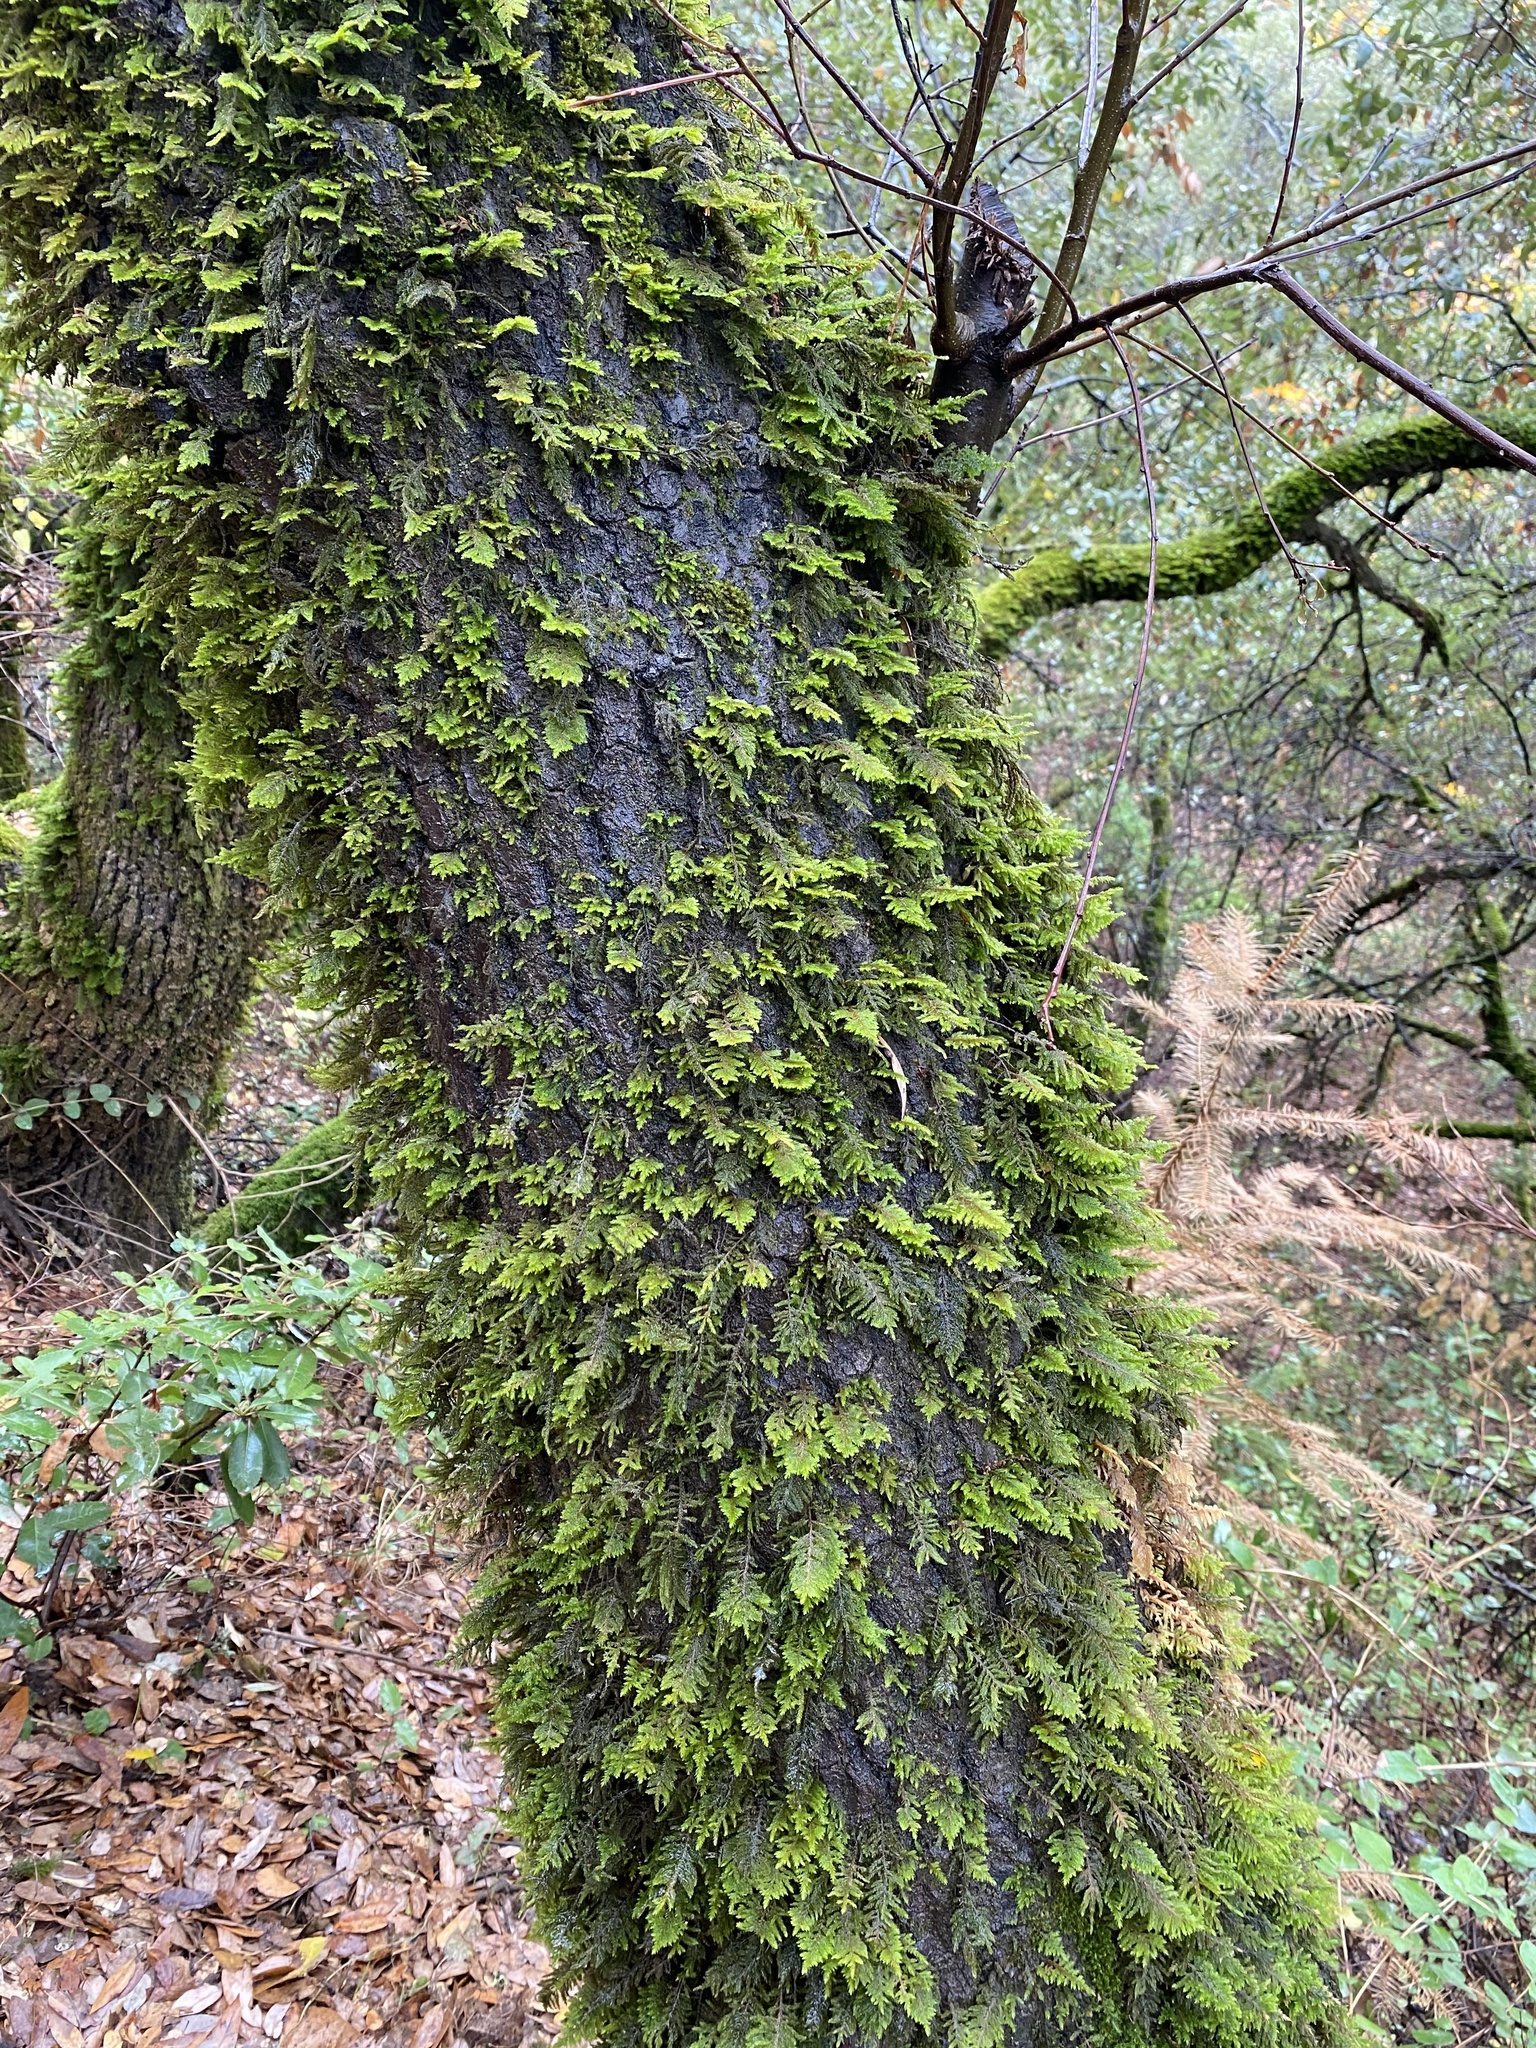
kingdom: Plantae
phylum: Bryophyta
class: Bryopsida
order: Hypnales
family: Cryphaeaceae
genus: Dendroalsia
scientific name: Dendroalsia abietina
